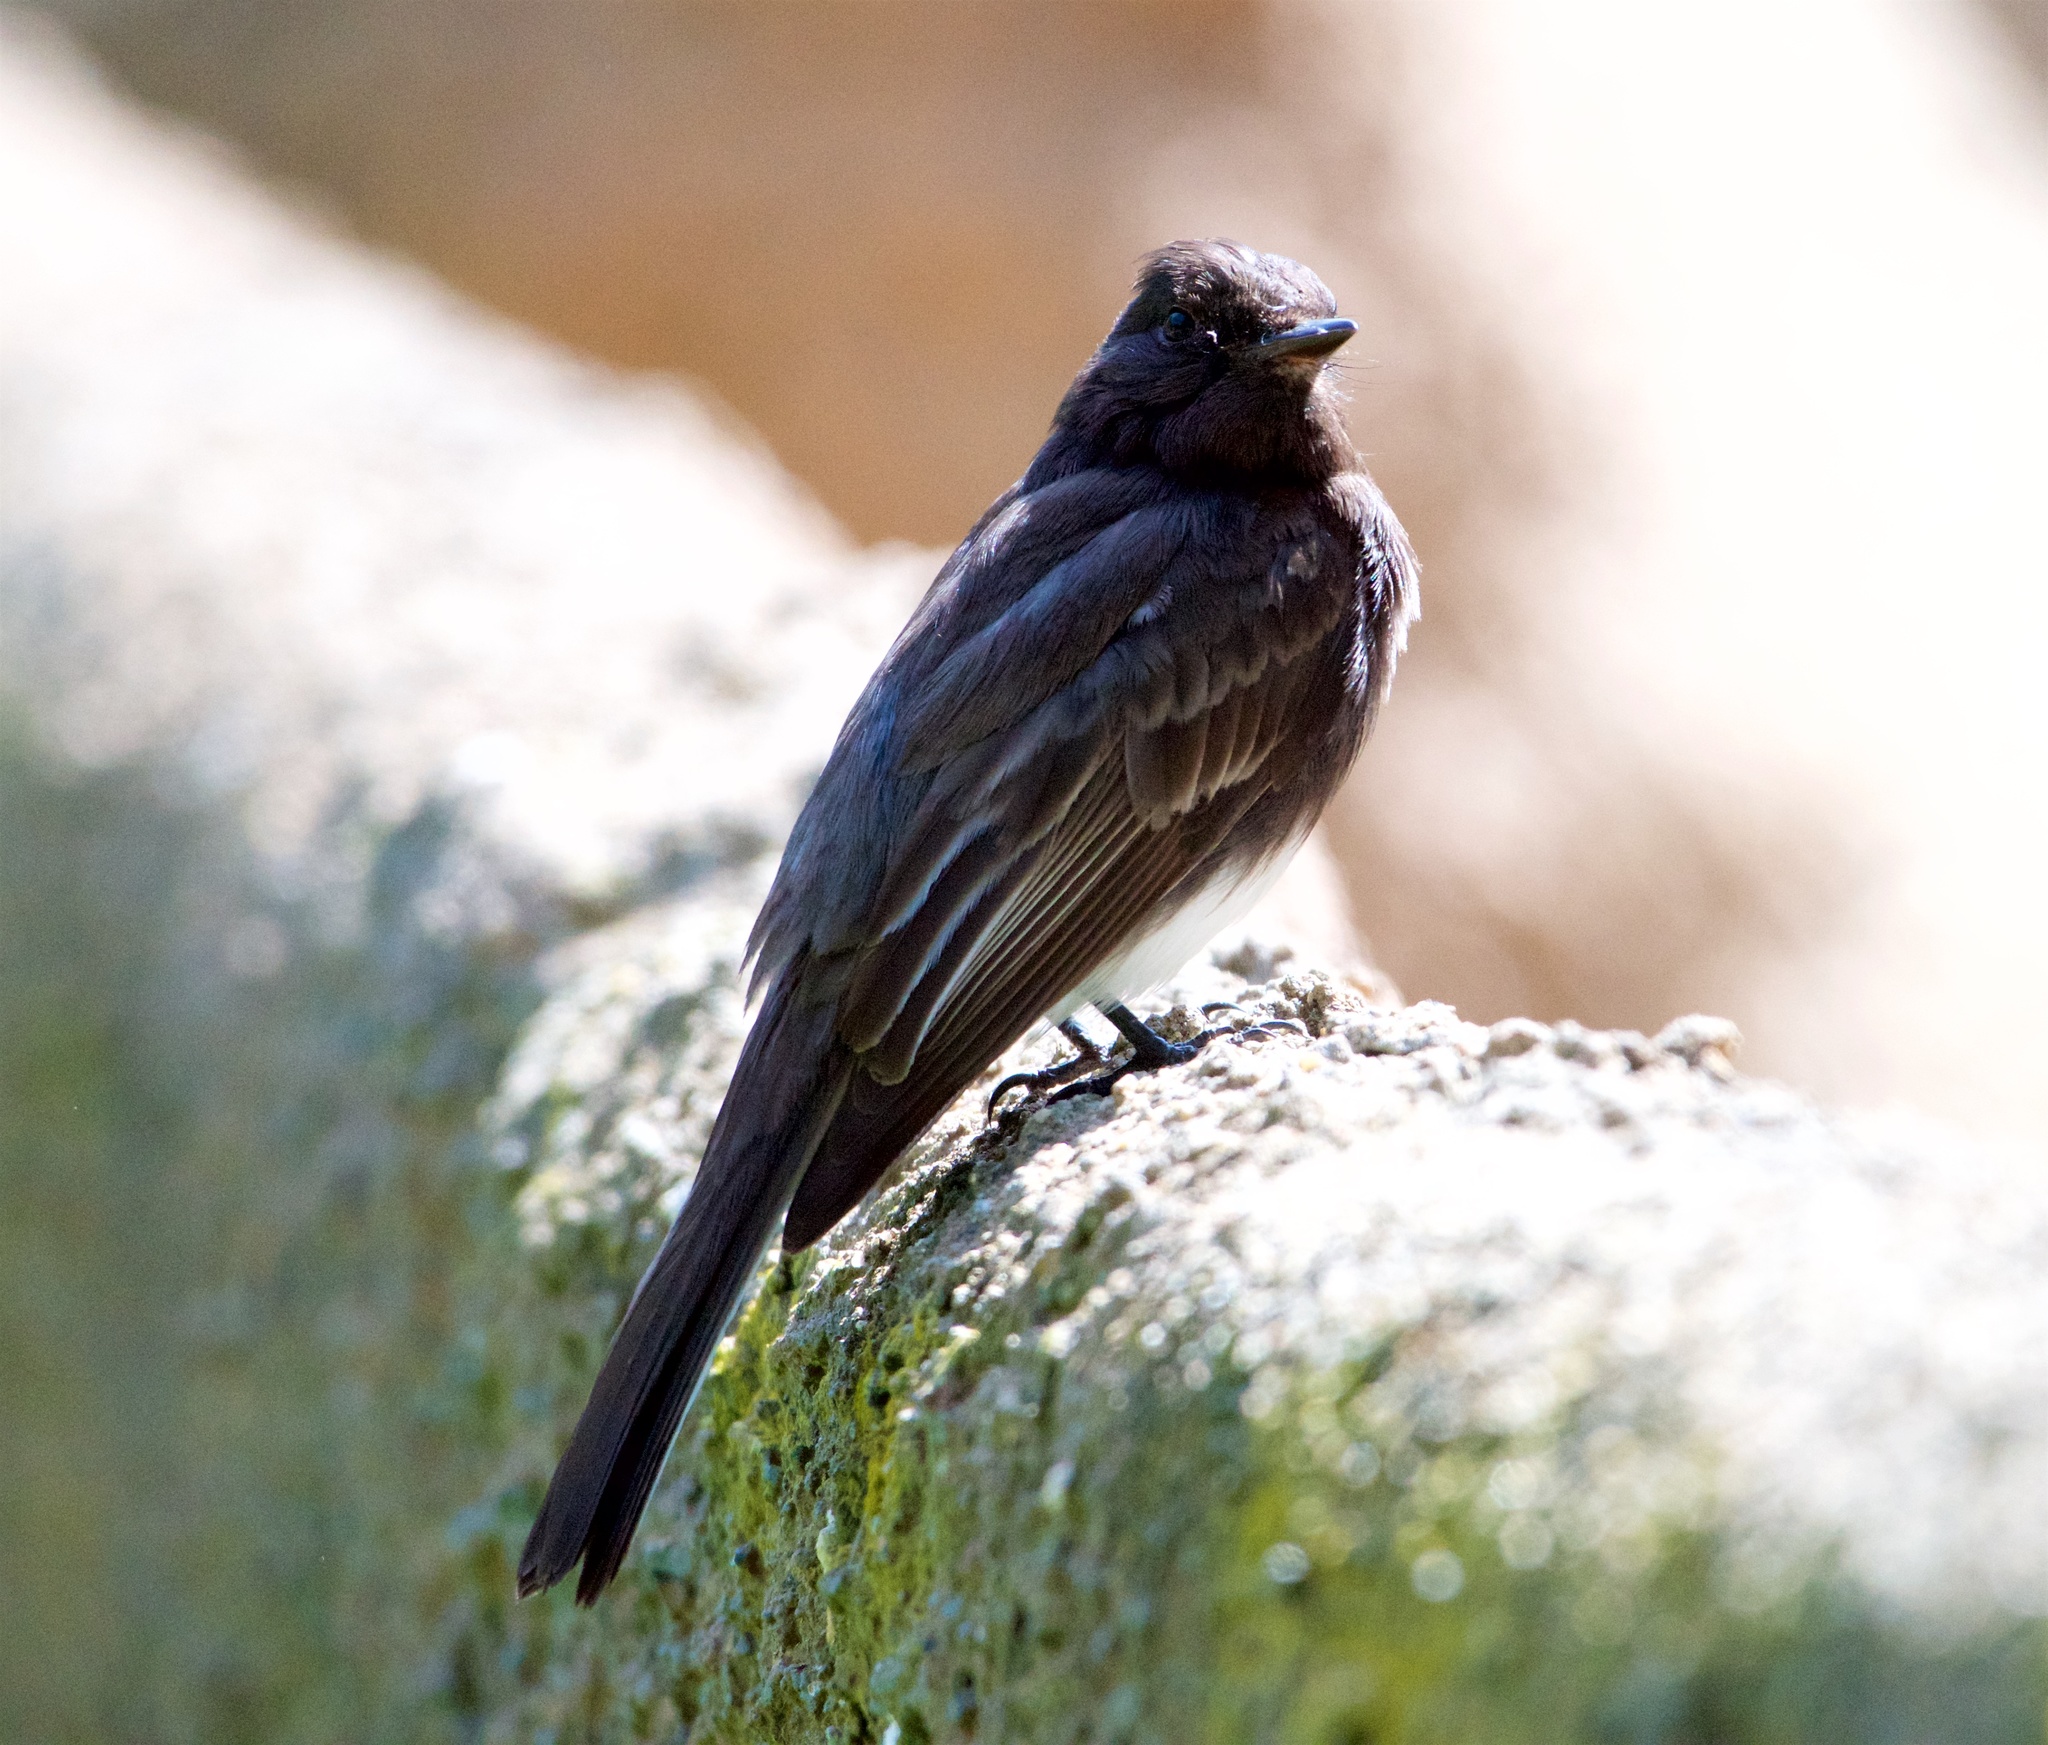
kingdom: Animalia
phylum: Chordata
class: Aves
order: Passeriformes
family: Tyrannidae
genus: Sayornis
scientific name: Sayornis nigricans
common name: Black phoebe
